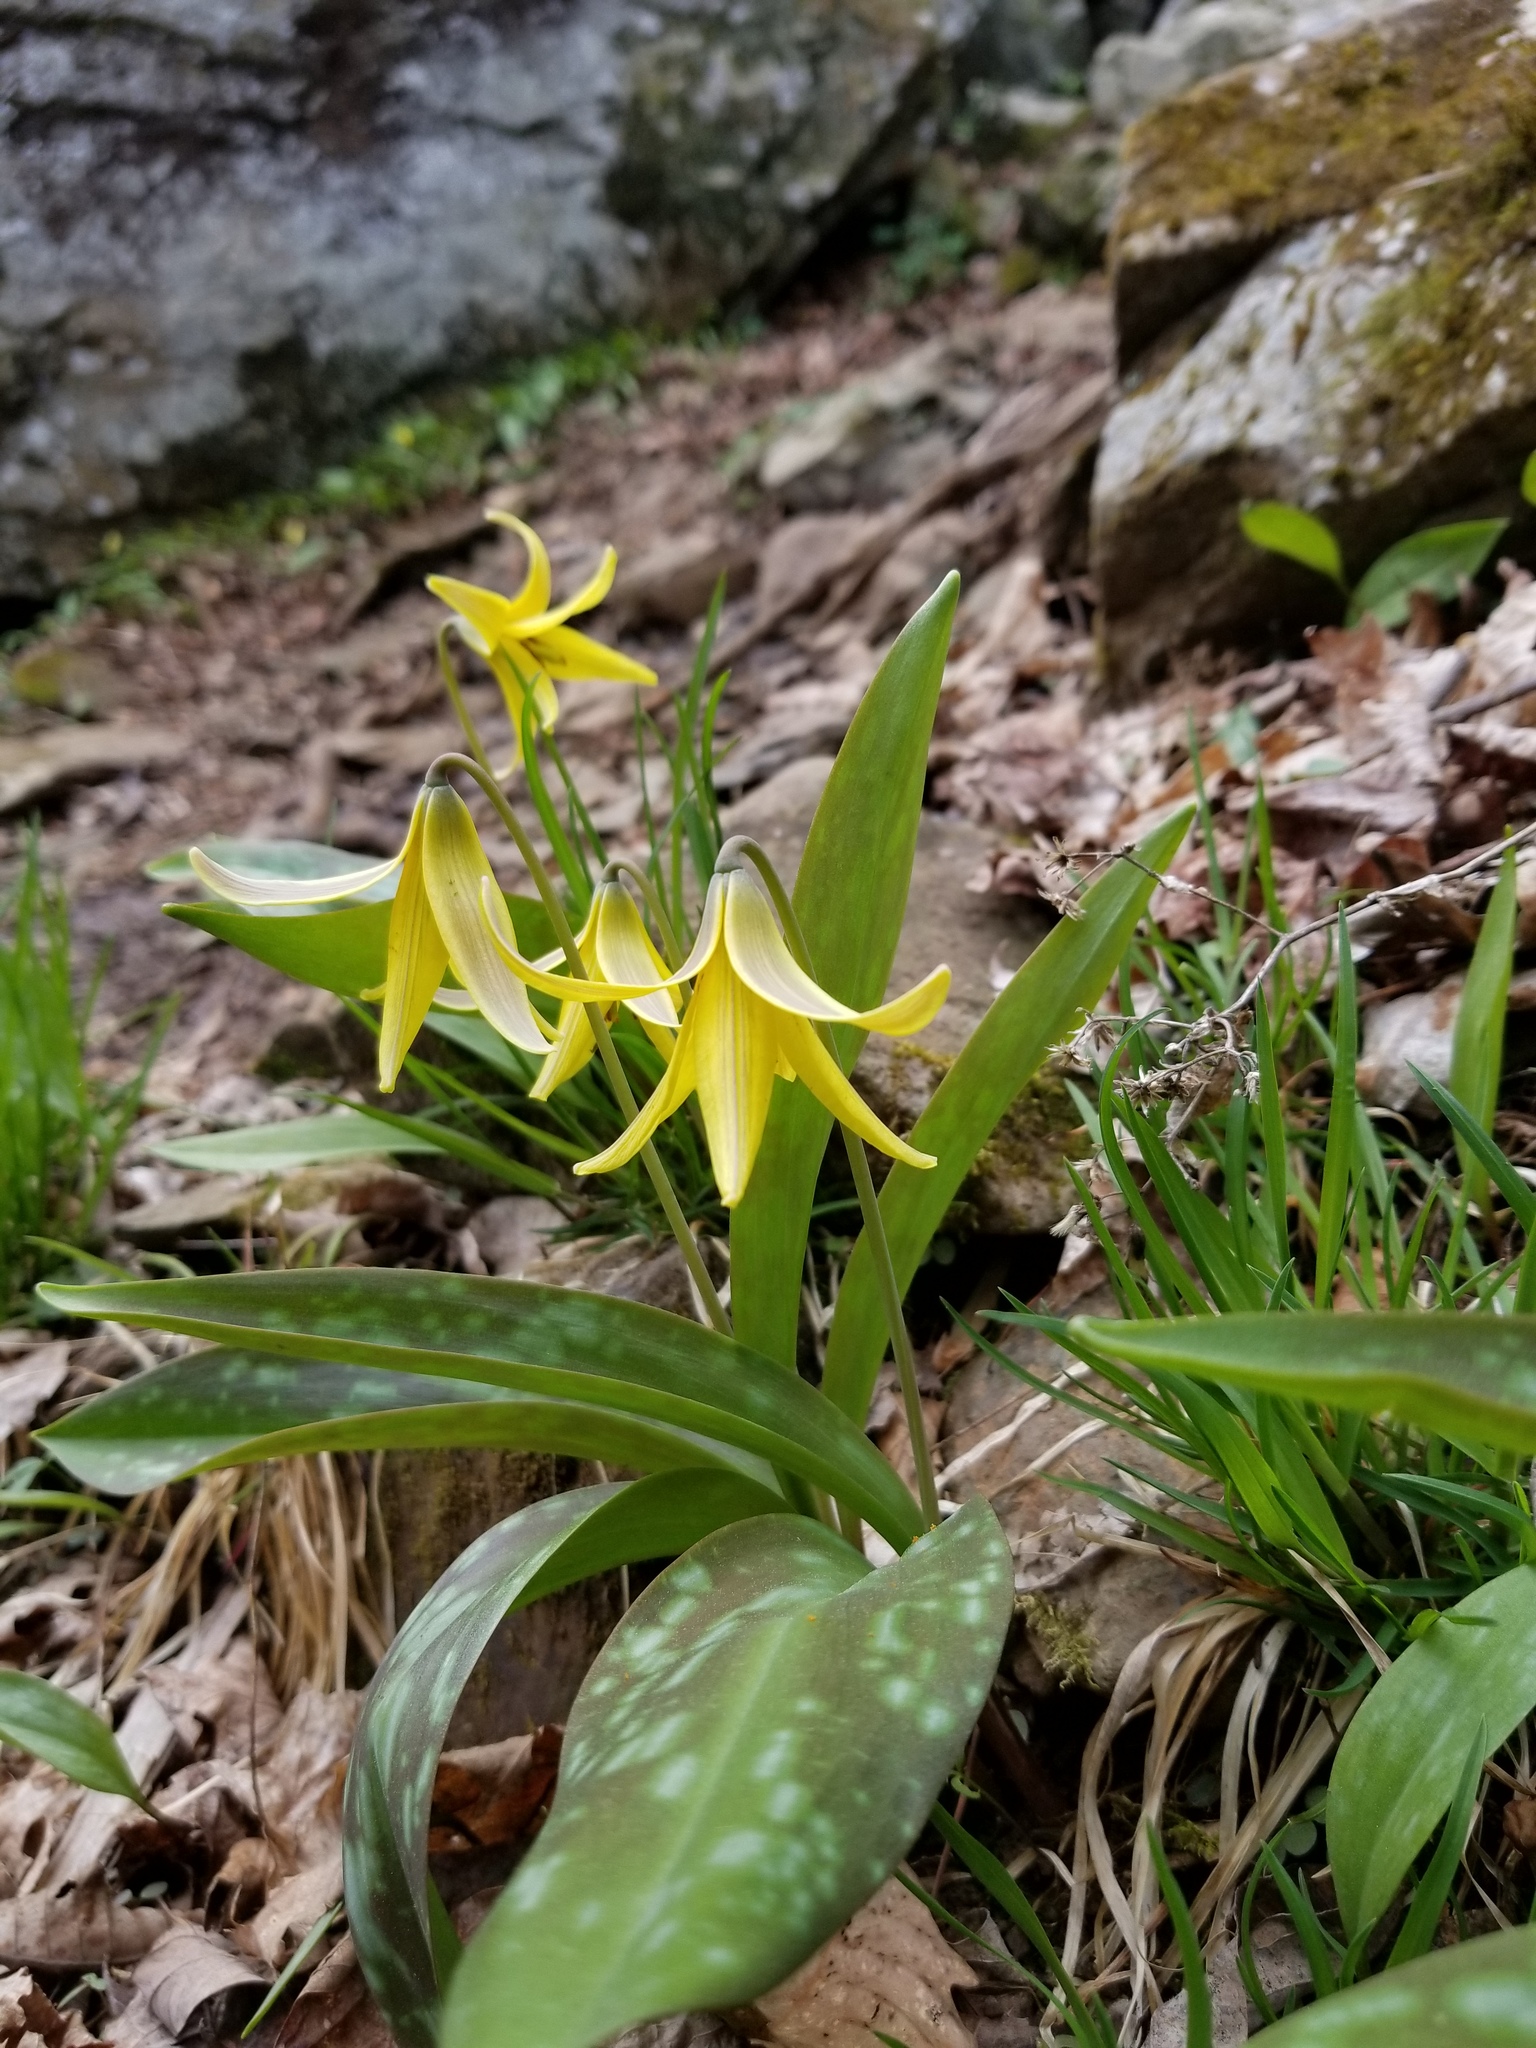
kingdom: Plantae
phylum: Tracheophyta
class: Liliopsida
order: Liliales
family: Liliaceae
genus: Erythronium
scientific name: Erythronium americanum
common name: Yellow adder's-tongue
